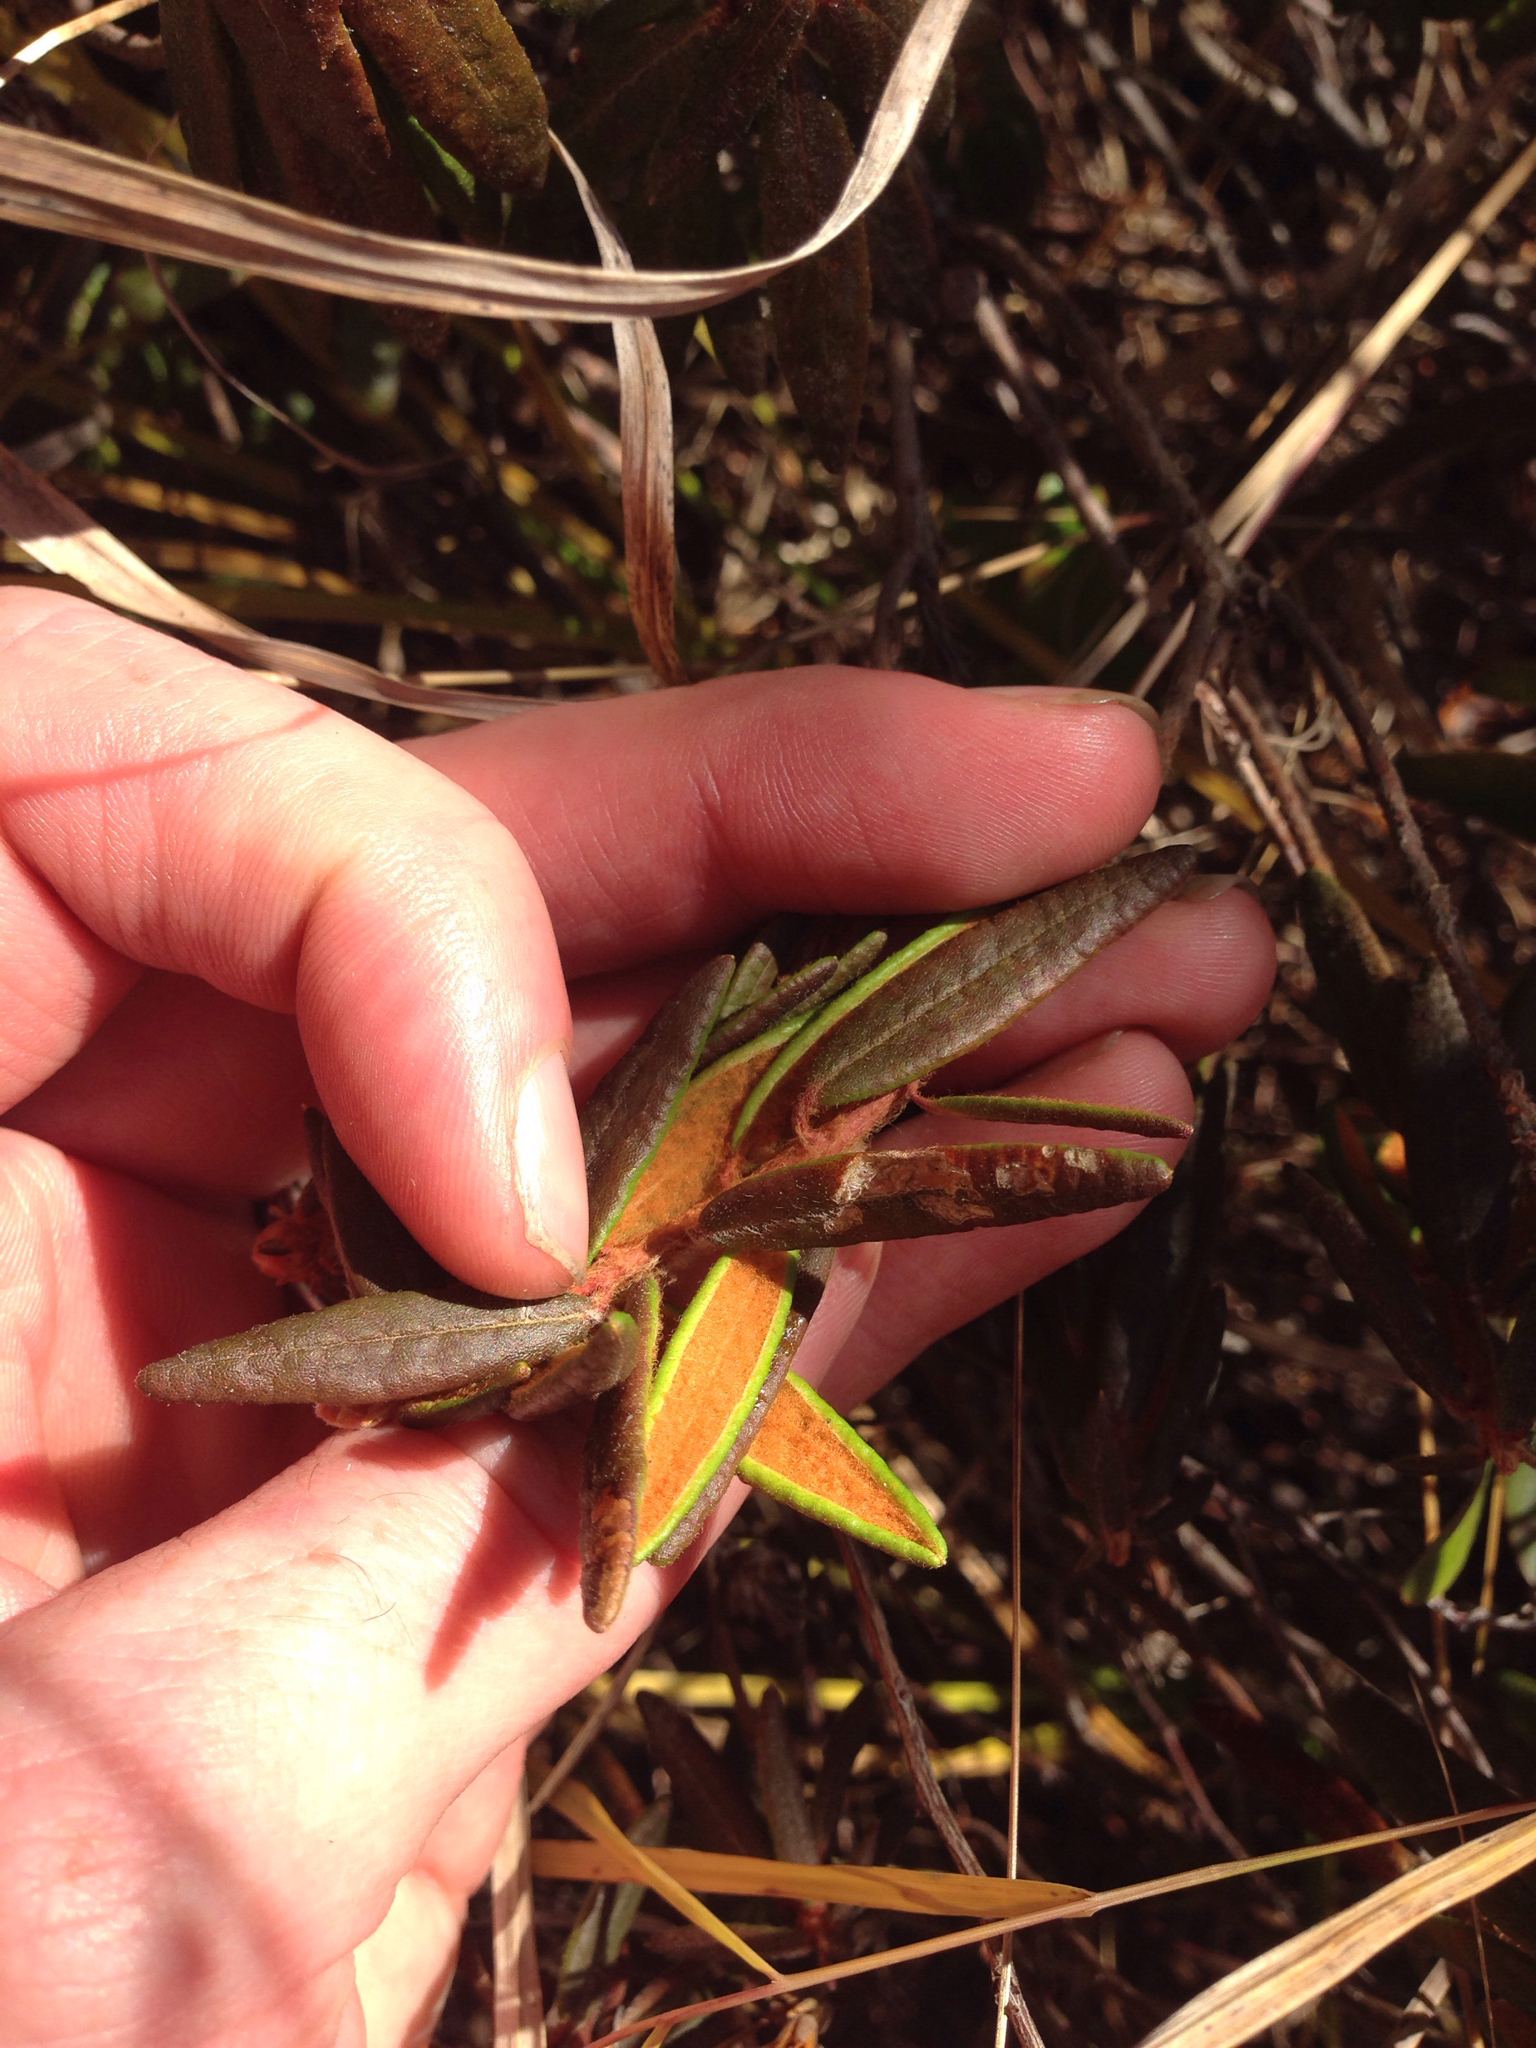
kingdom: Plantae
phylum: Tracheophyta
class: Magnoliopsida
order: Ericales
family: Ericaceae
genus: Rhododendron
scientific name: Rhododendron groenlandicum
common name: Bog labrador tea
